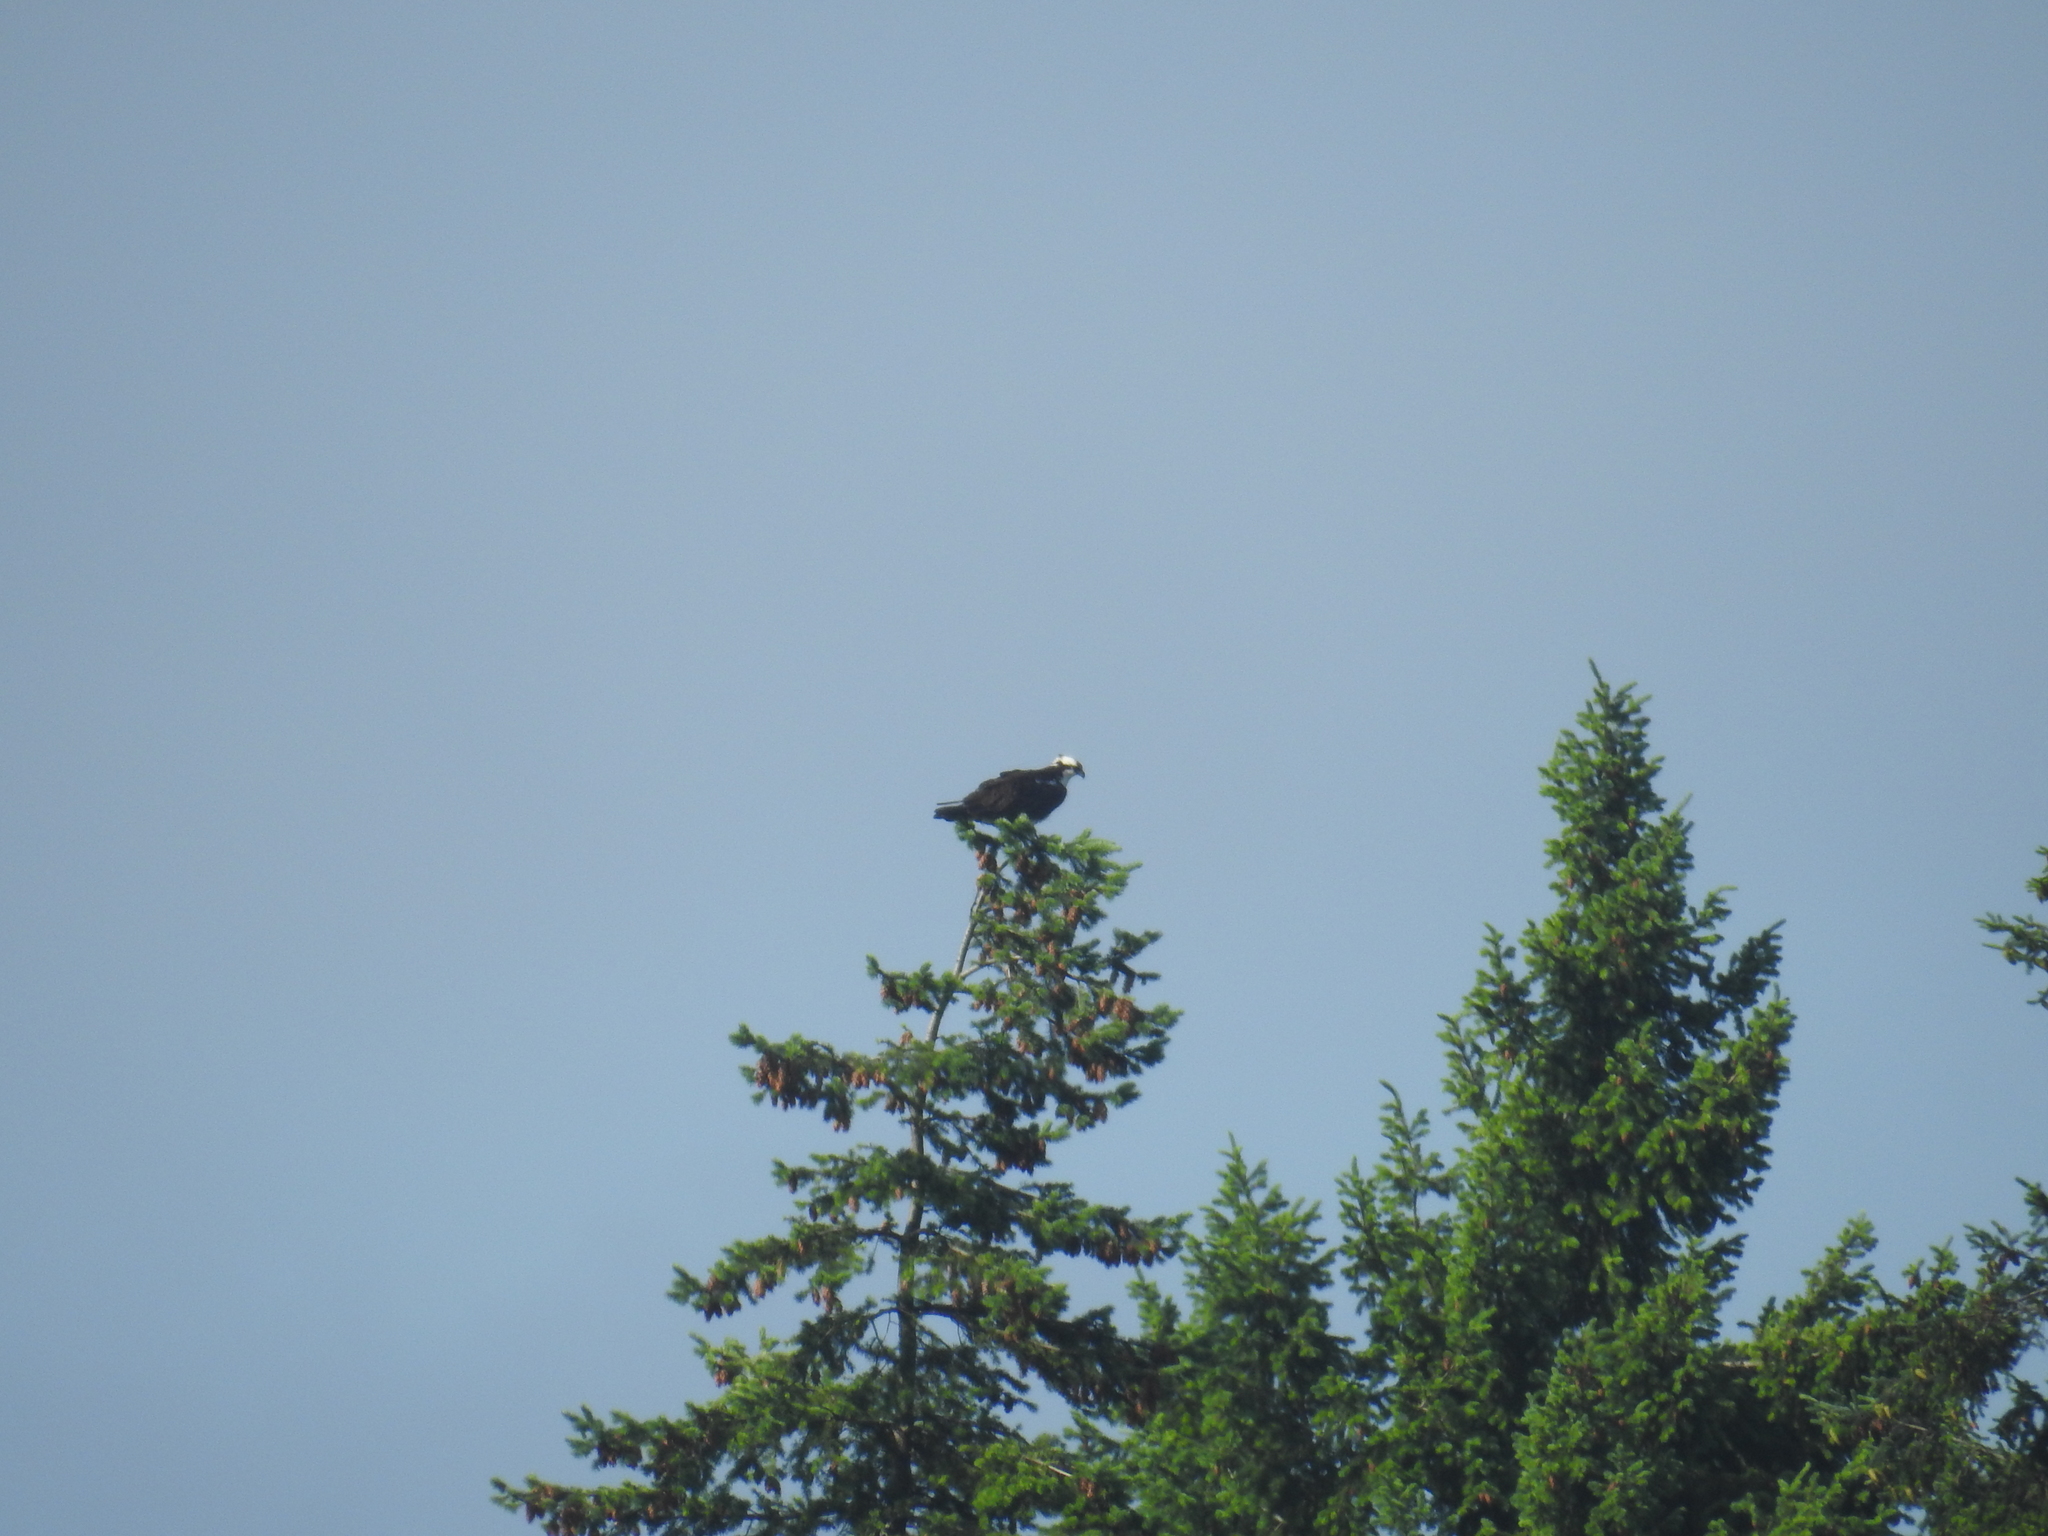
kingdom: Animalia
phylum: Chordata
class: Aves
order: Accipitriformes
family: Pandionidae
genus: Pandion
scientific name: Pandion haliaetus
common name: Osprey
